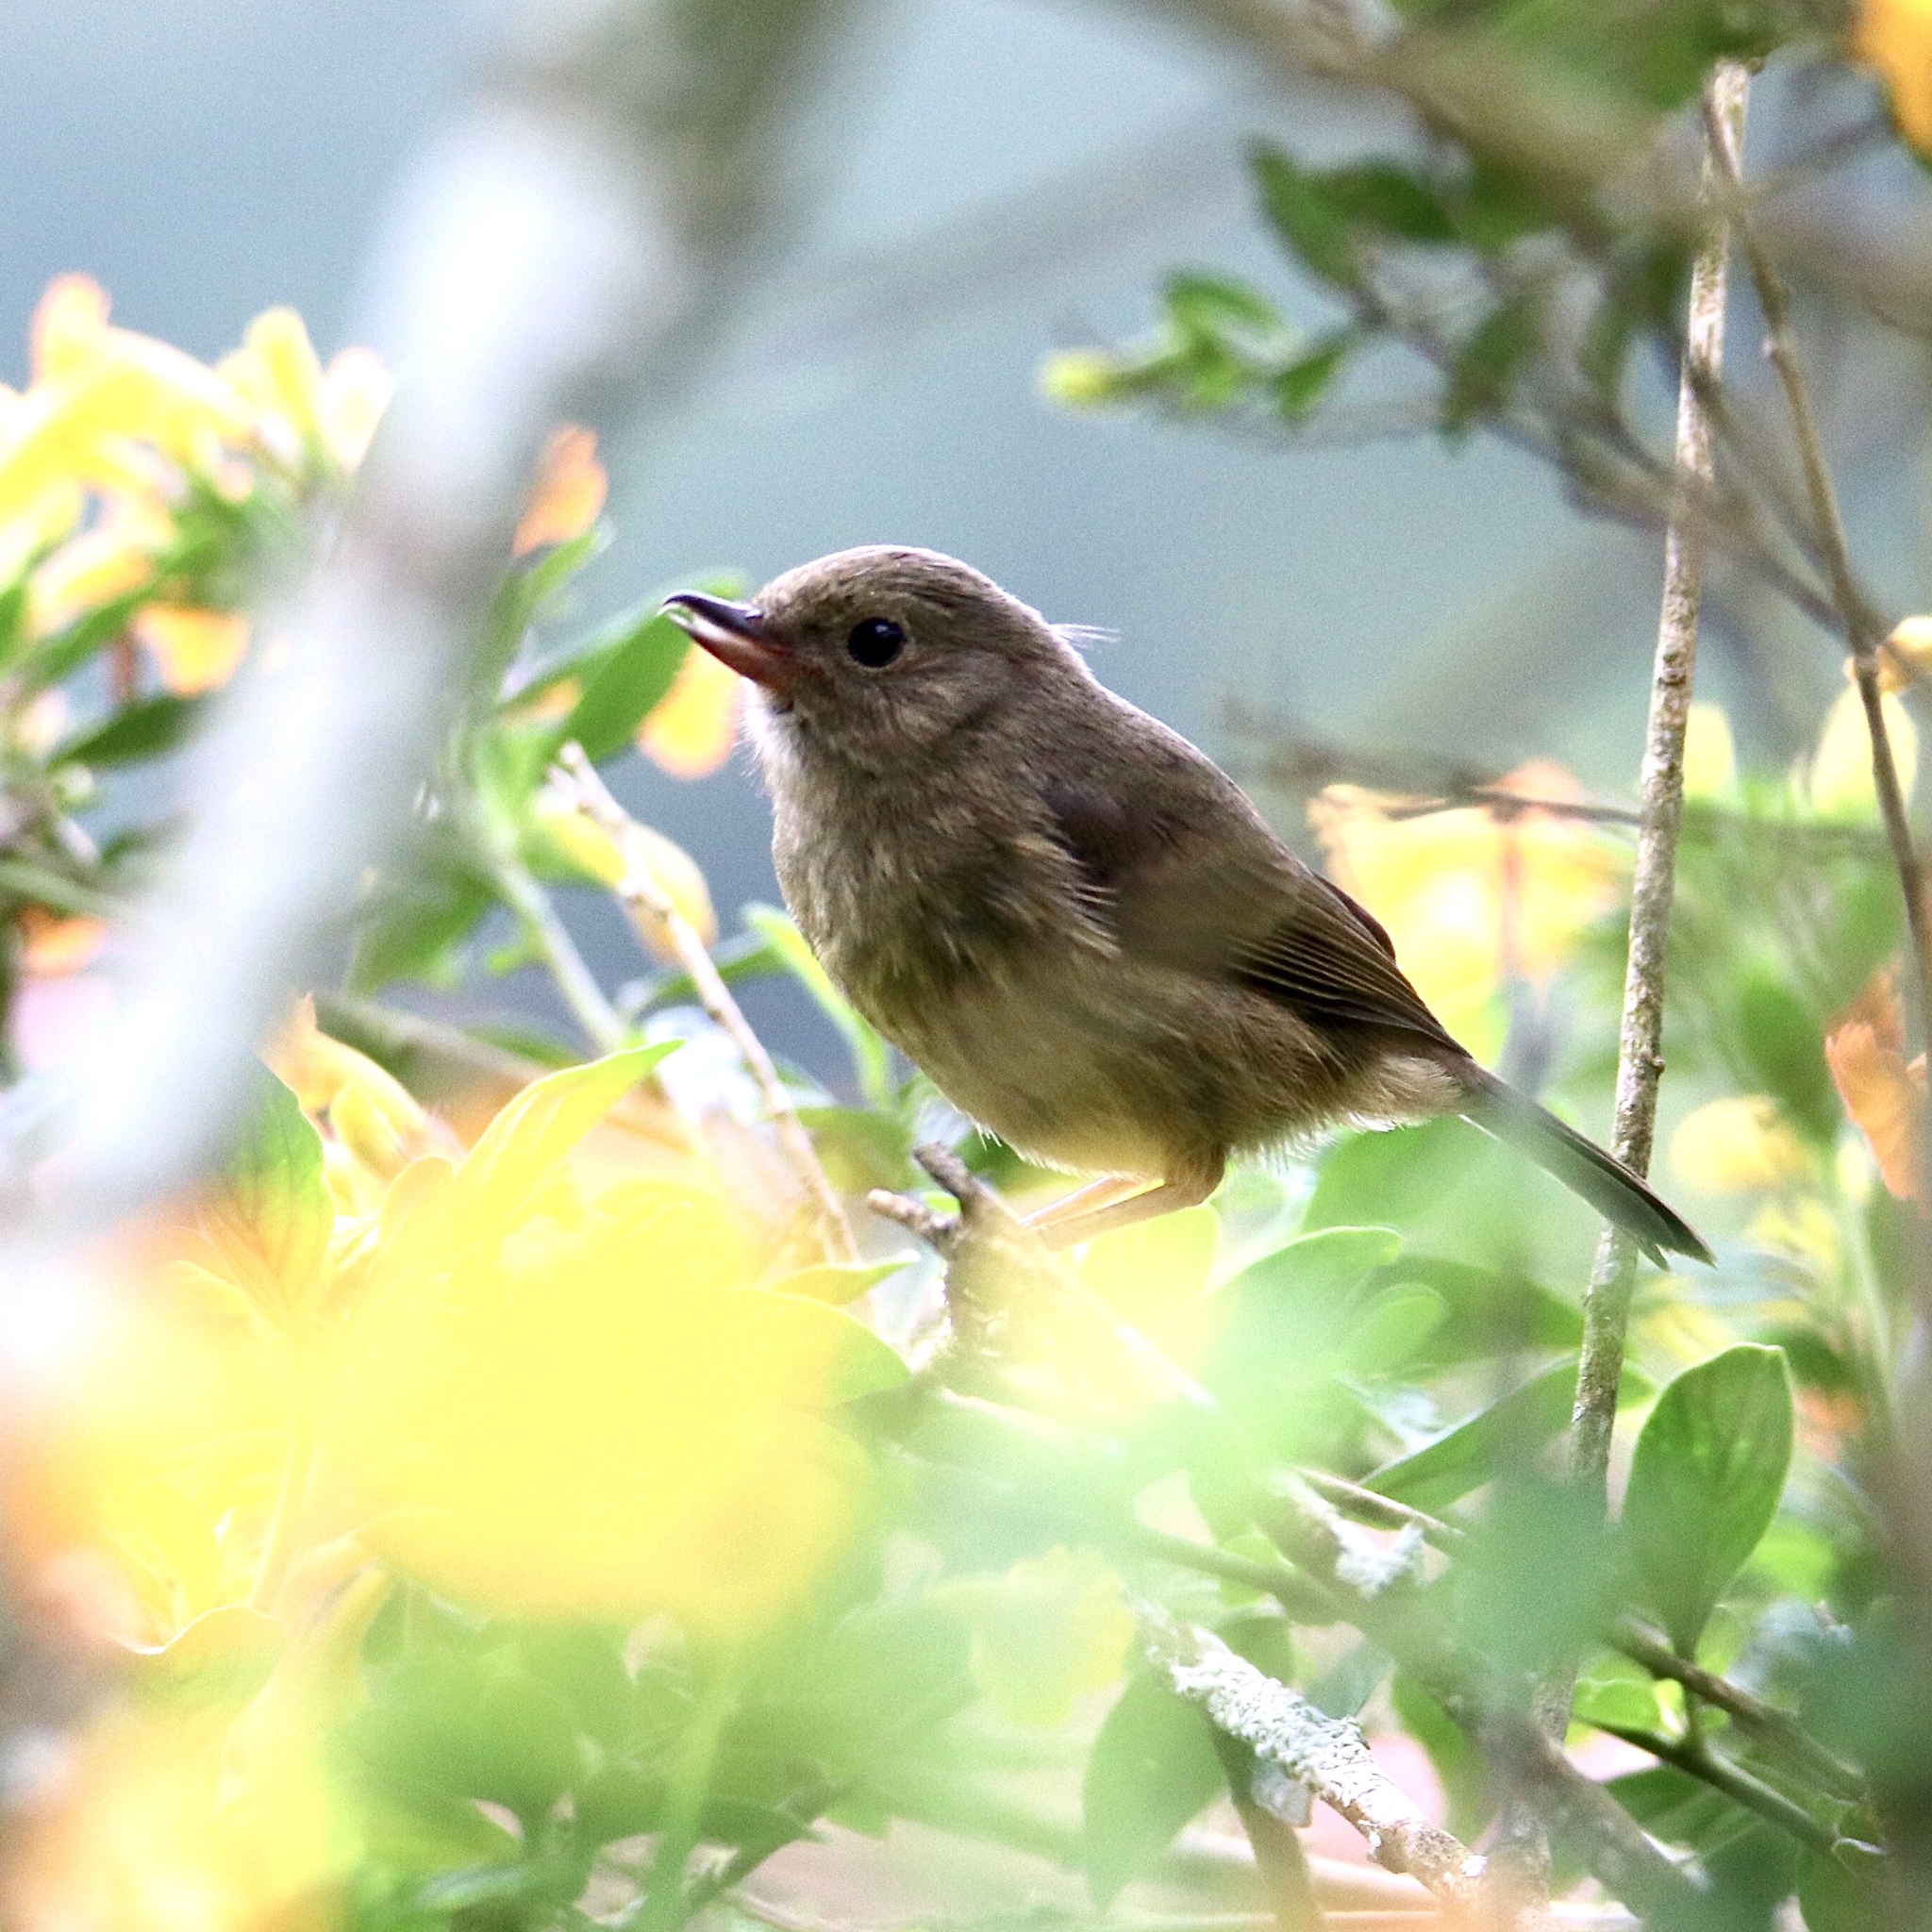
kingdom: Animalia
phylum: Chordata
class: Aves
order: Passeriformes
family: Thraupidae
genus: Diglossa
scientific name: Diglossa plumbea
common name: Slaty flowerpiercer
